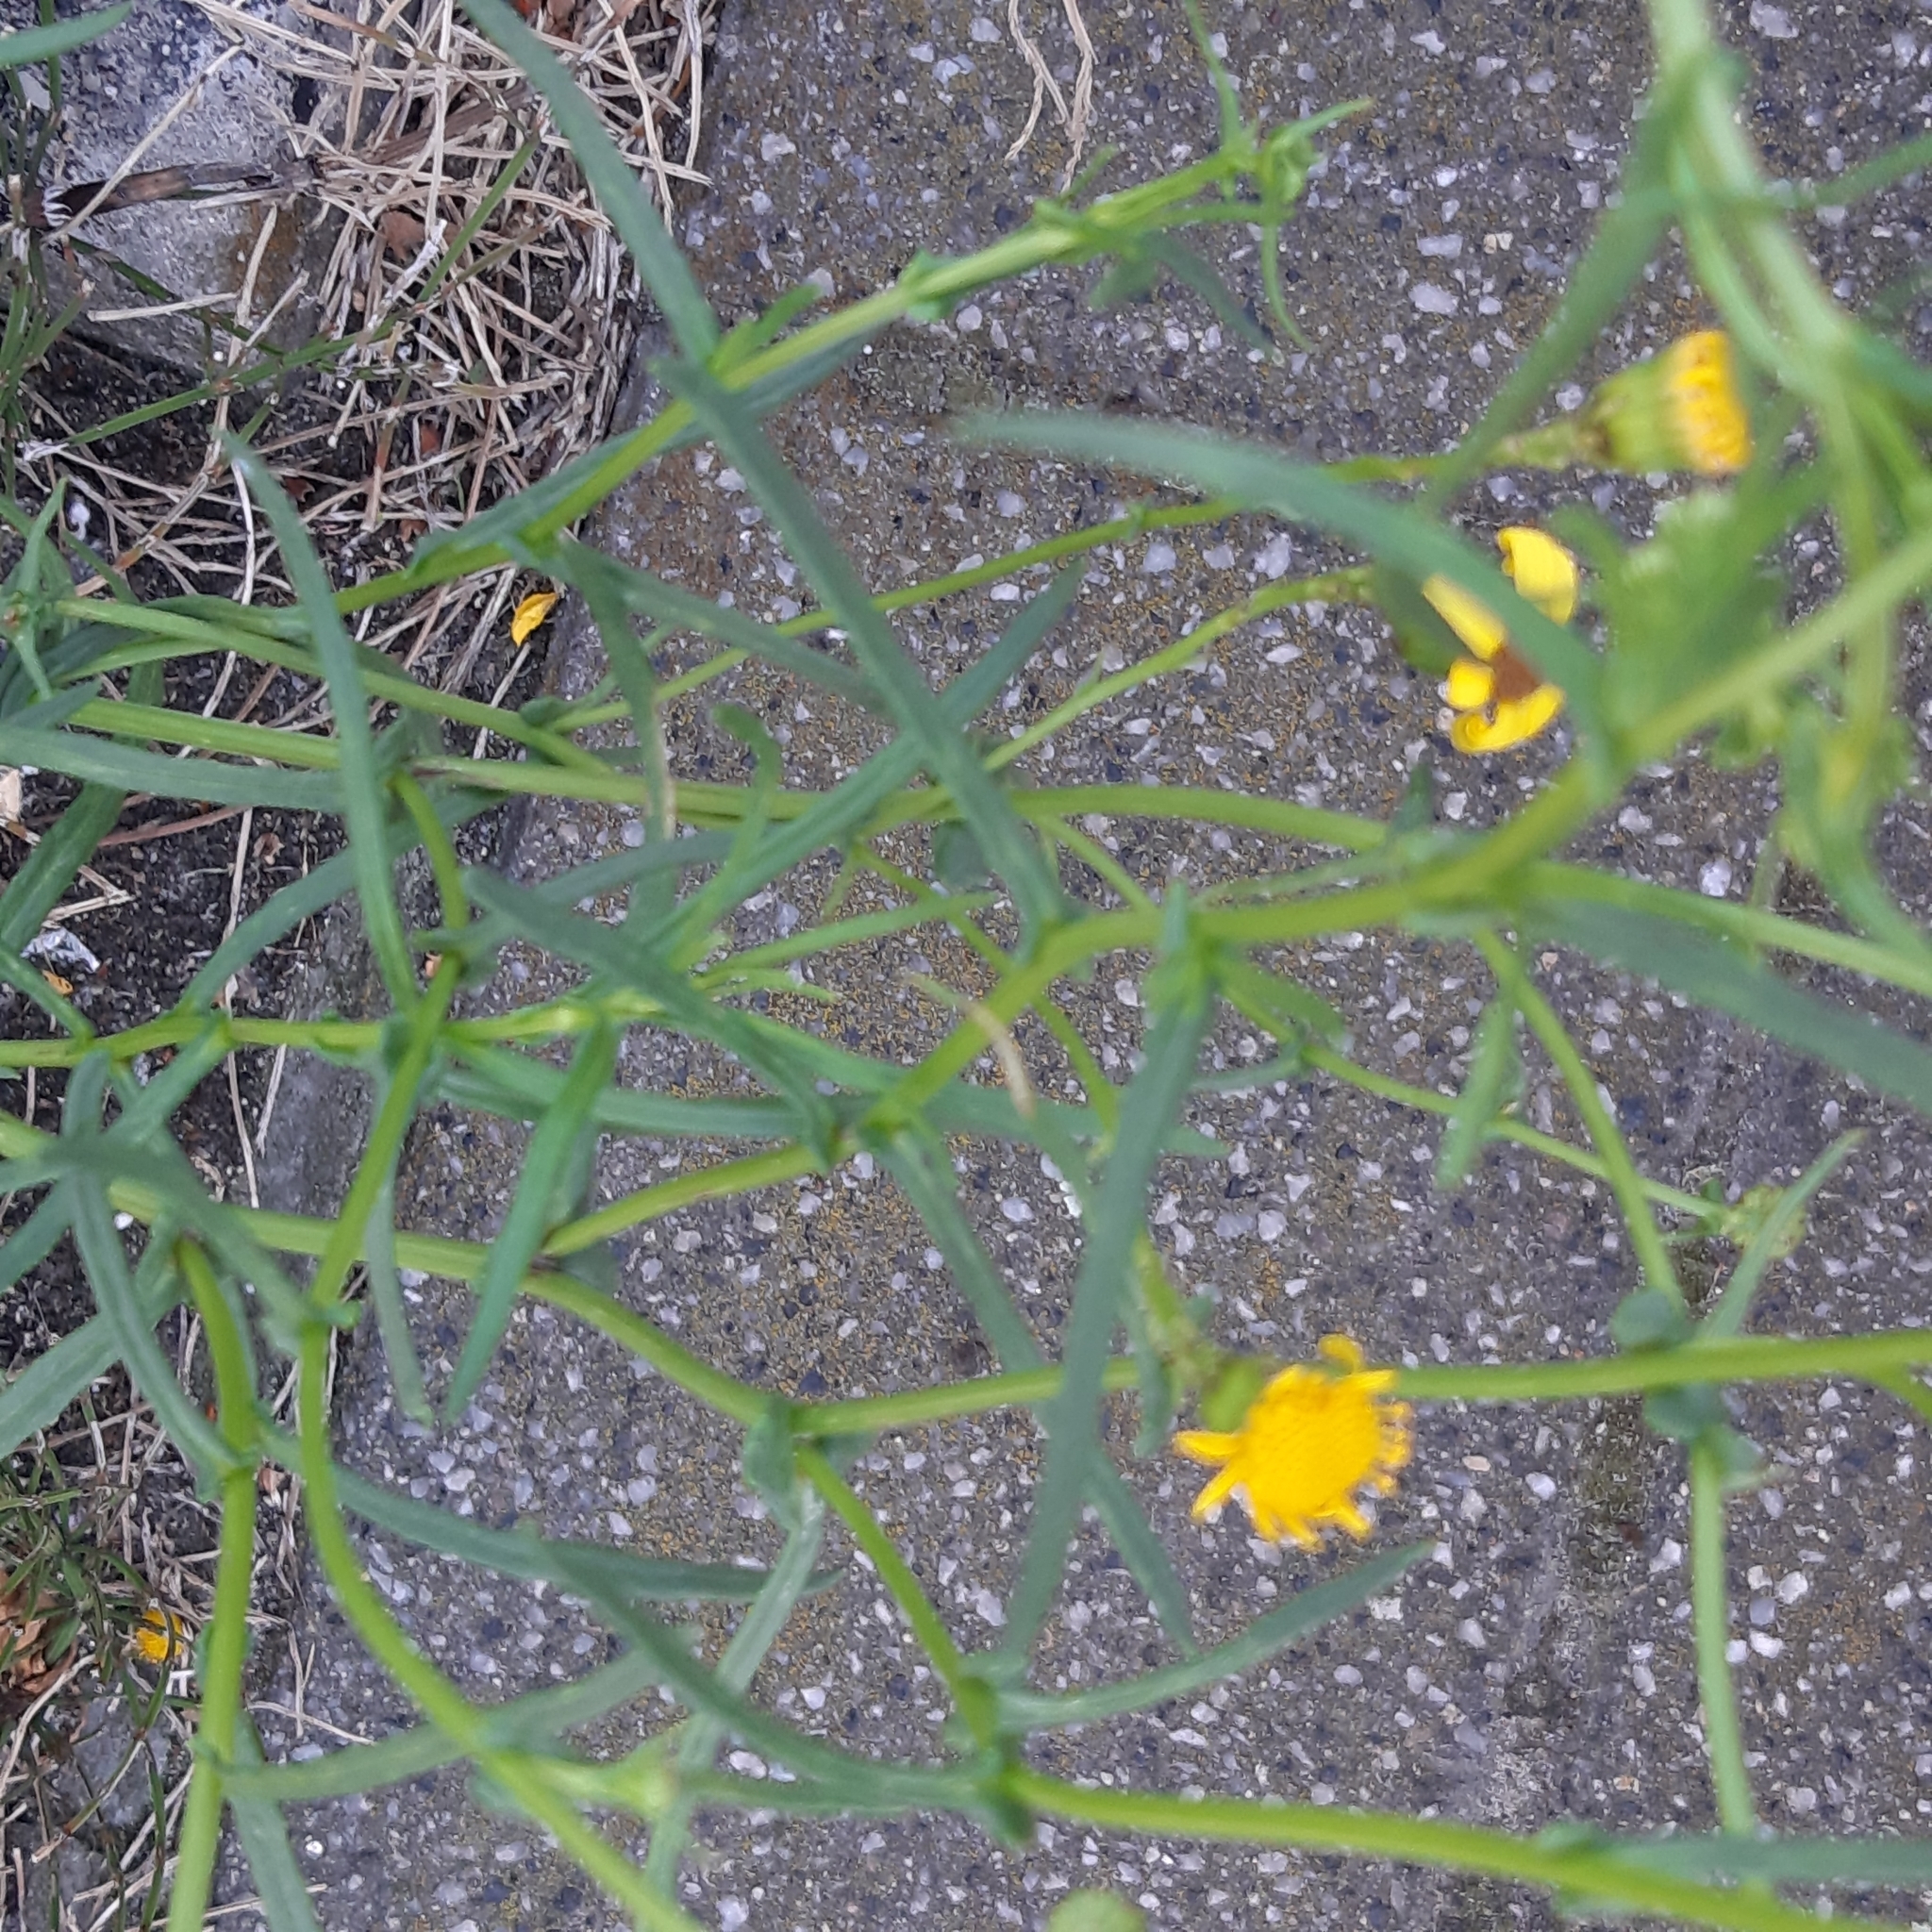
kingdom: Plantae
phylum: Tracheophyta
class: Magnoliopsida
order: Asterales
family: Asteraceae
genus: Senecio
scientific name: Senecio inaequidens
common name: Narrow-leaved ragwort
